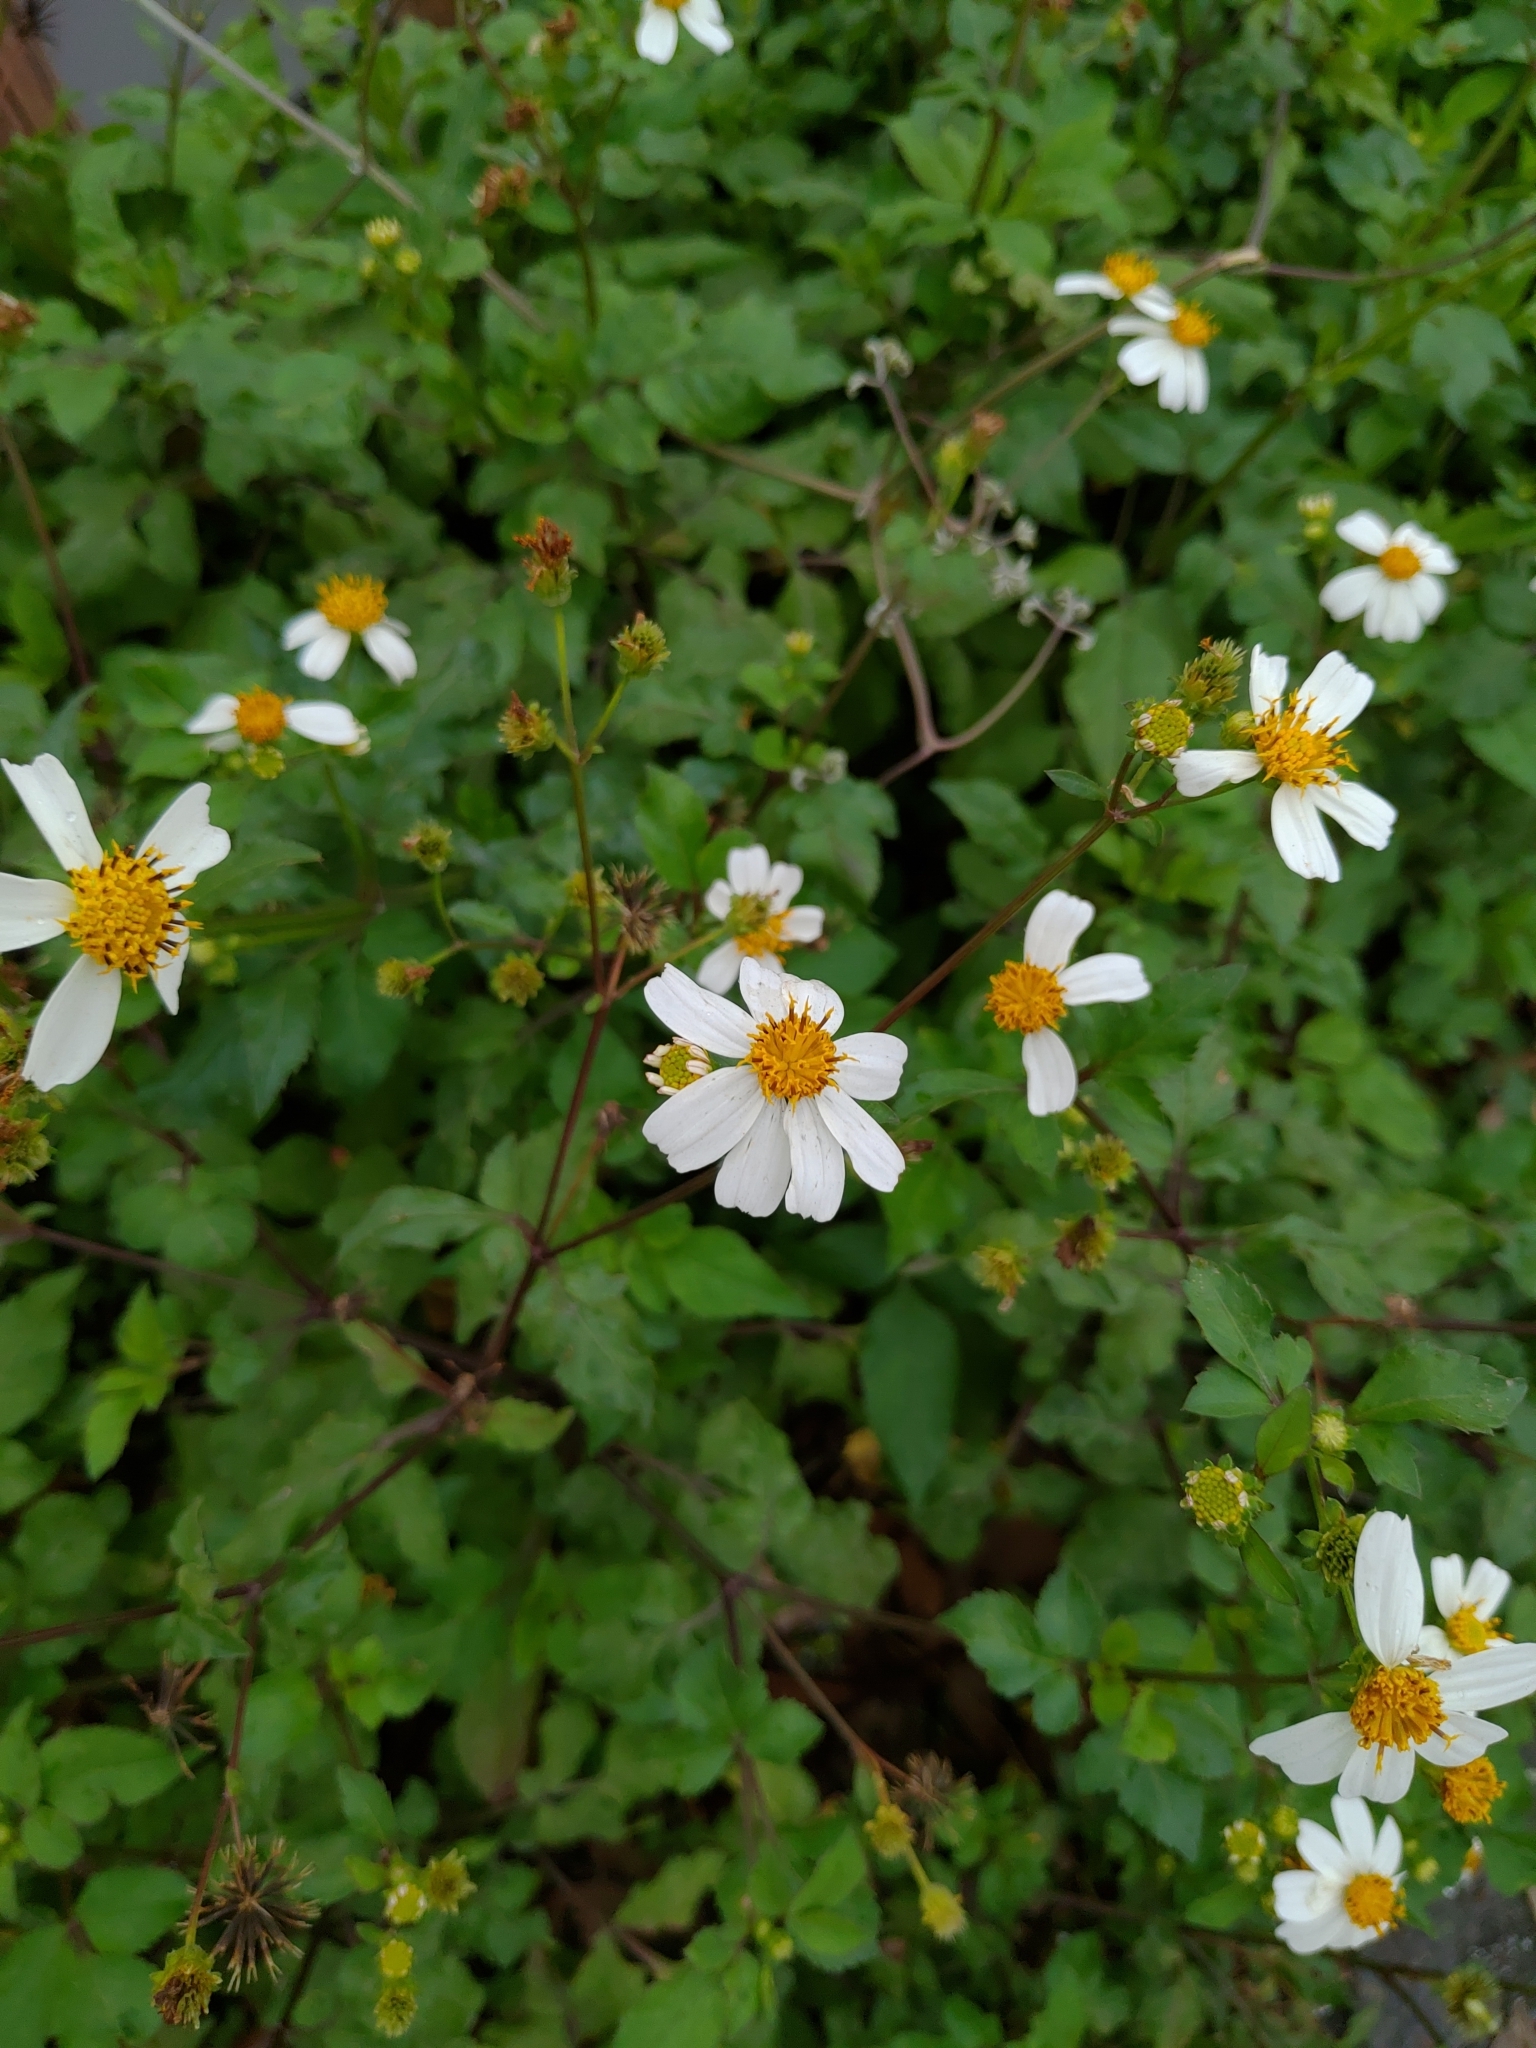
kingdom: Plantae
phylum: Tracheophyta
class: Magnoliopsida
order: Asterales
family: Asteraceae
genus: Bidens
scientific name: Bidens alba
